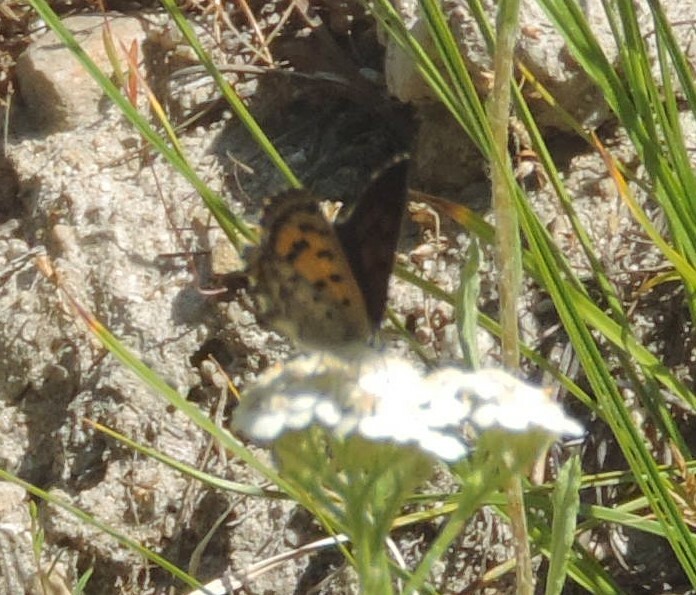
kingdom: Animalia
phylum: Arthropoda
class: Insecta
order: Lepidoptera
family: Lycaenidae
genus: Tharsalea
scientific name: Tharsalea mariposa
